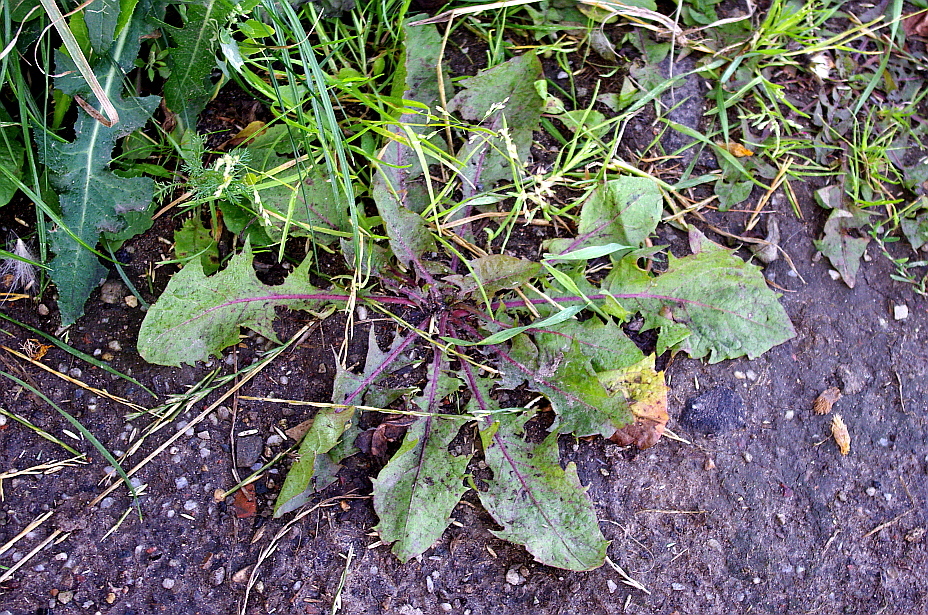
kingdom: Plantae
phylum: Tracheophyta
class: Magnoliopsida
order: Asterales
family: Asteraceae
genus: Taraxacum
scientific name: Taraxacum officinale
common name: Common dandelion
